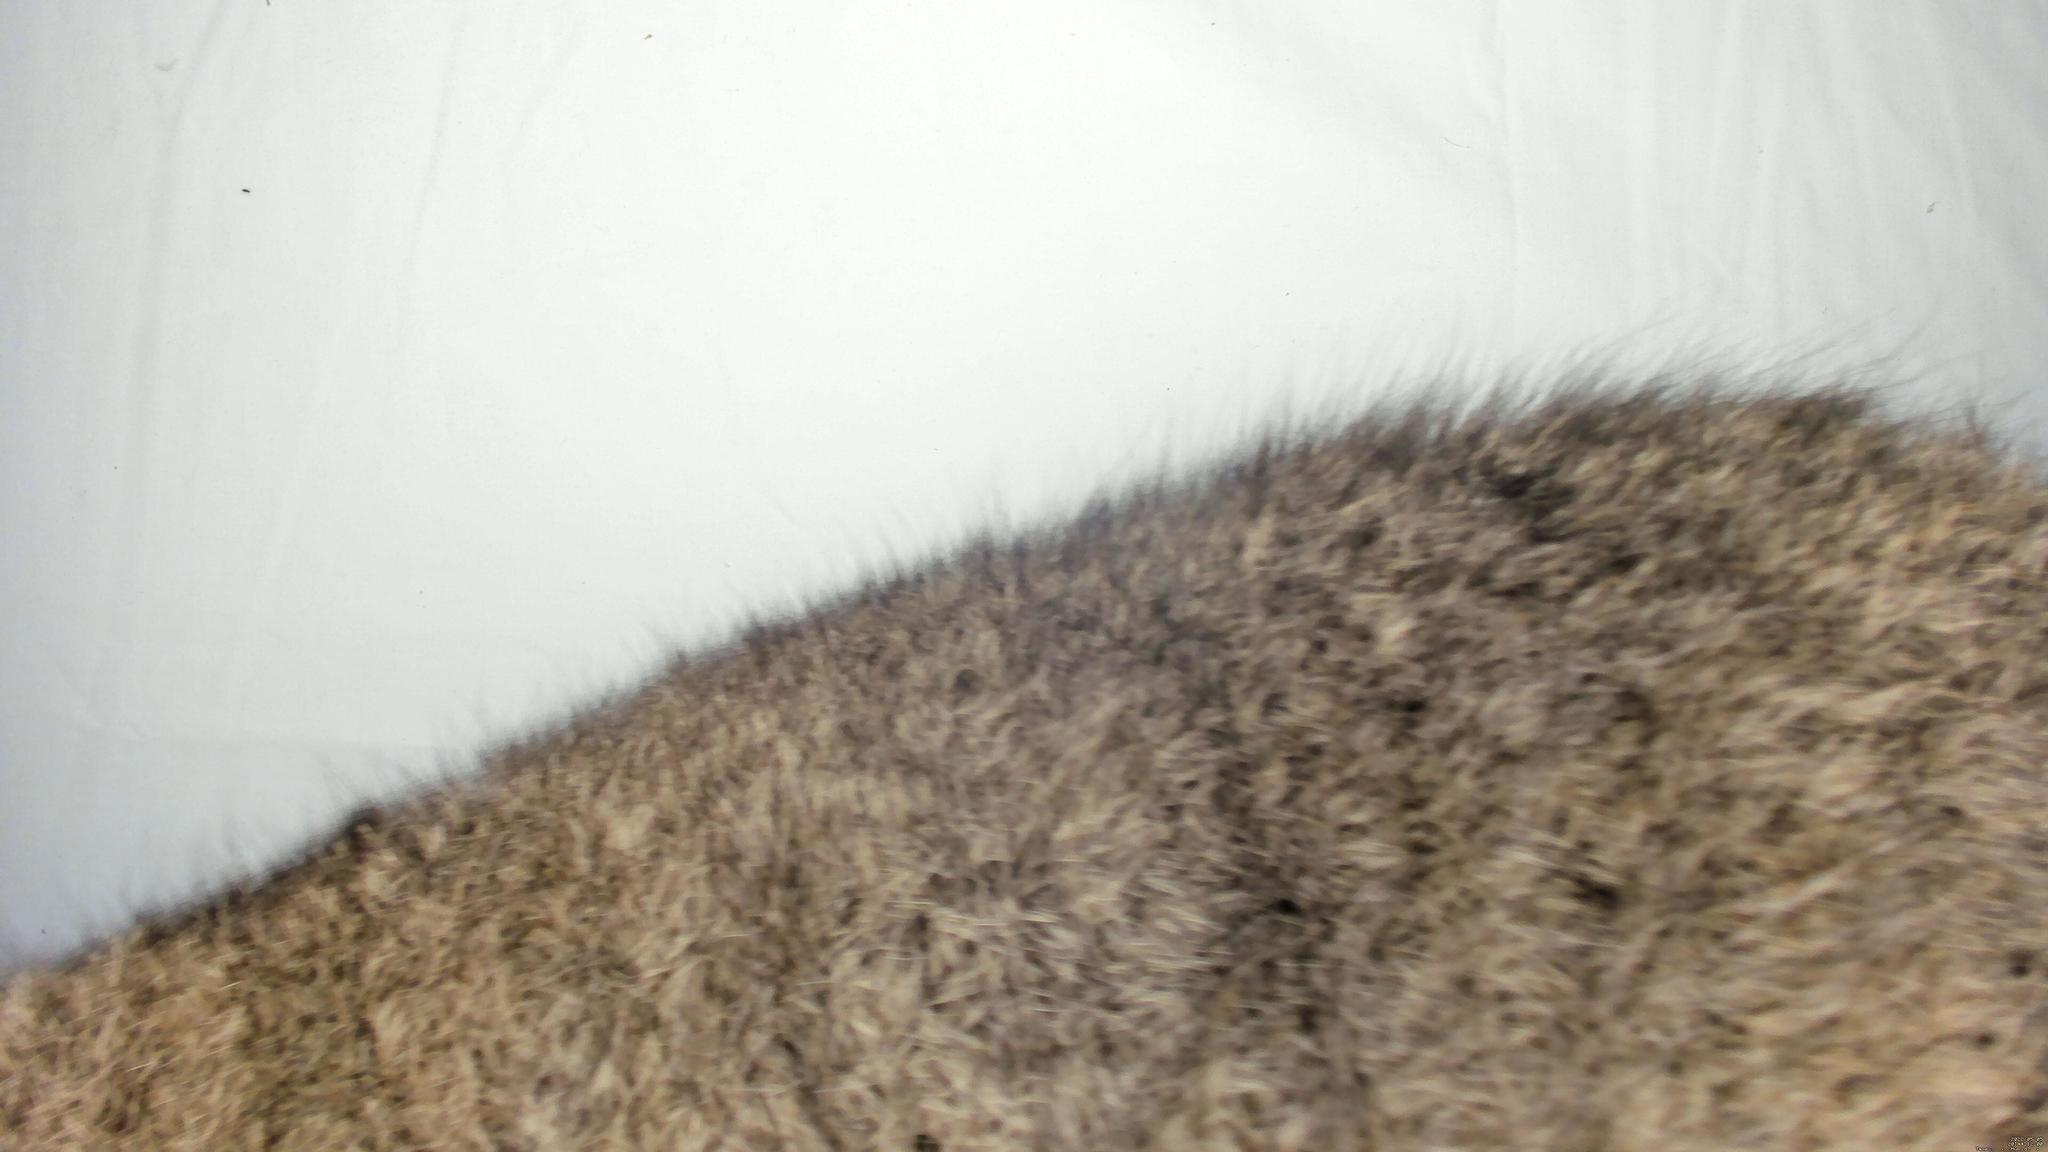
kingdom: Animalia
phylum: Chordata
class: Mammalia
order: Diprotodontia
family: Phalangeridae
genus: Trichosurus
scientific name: Trichosurus vulpecula
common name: Common brushtail
